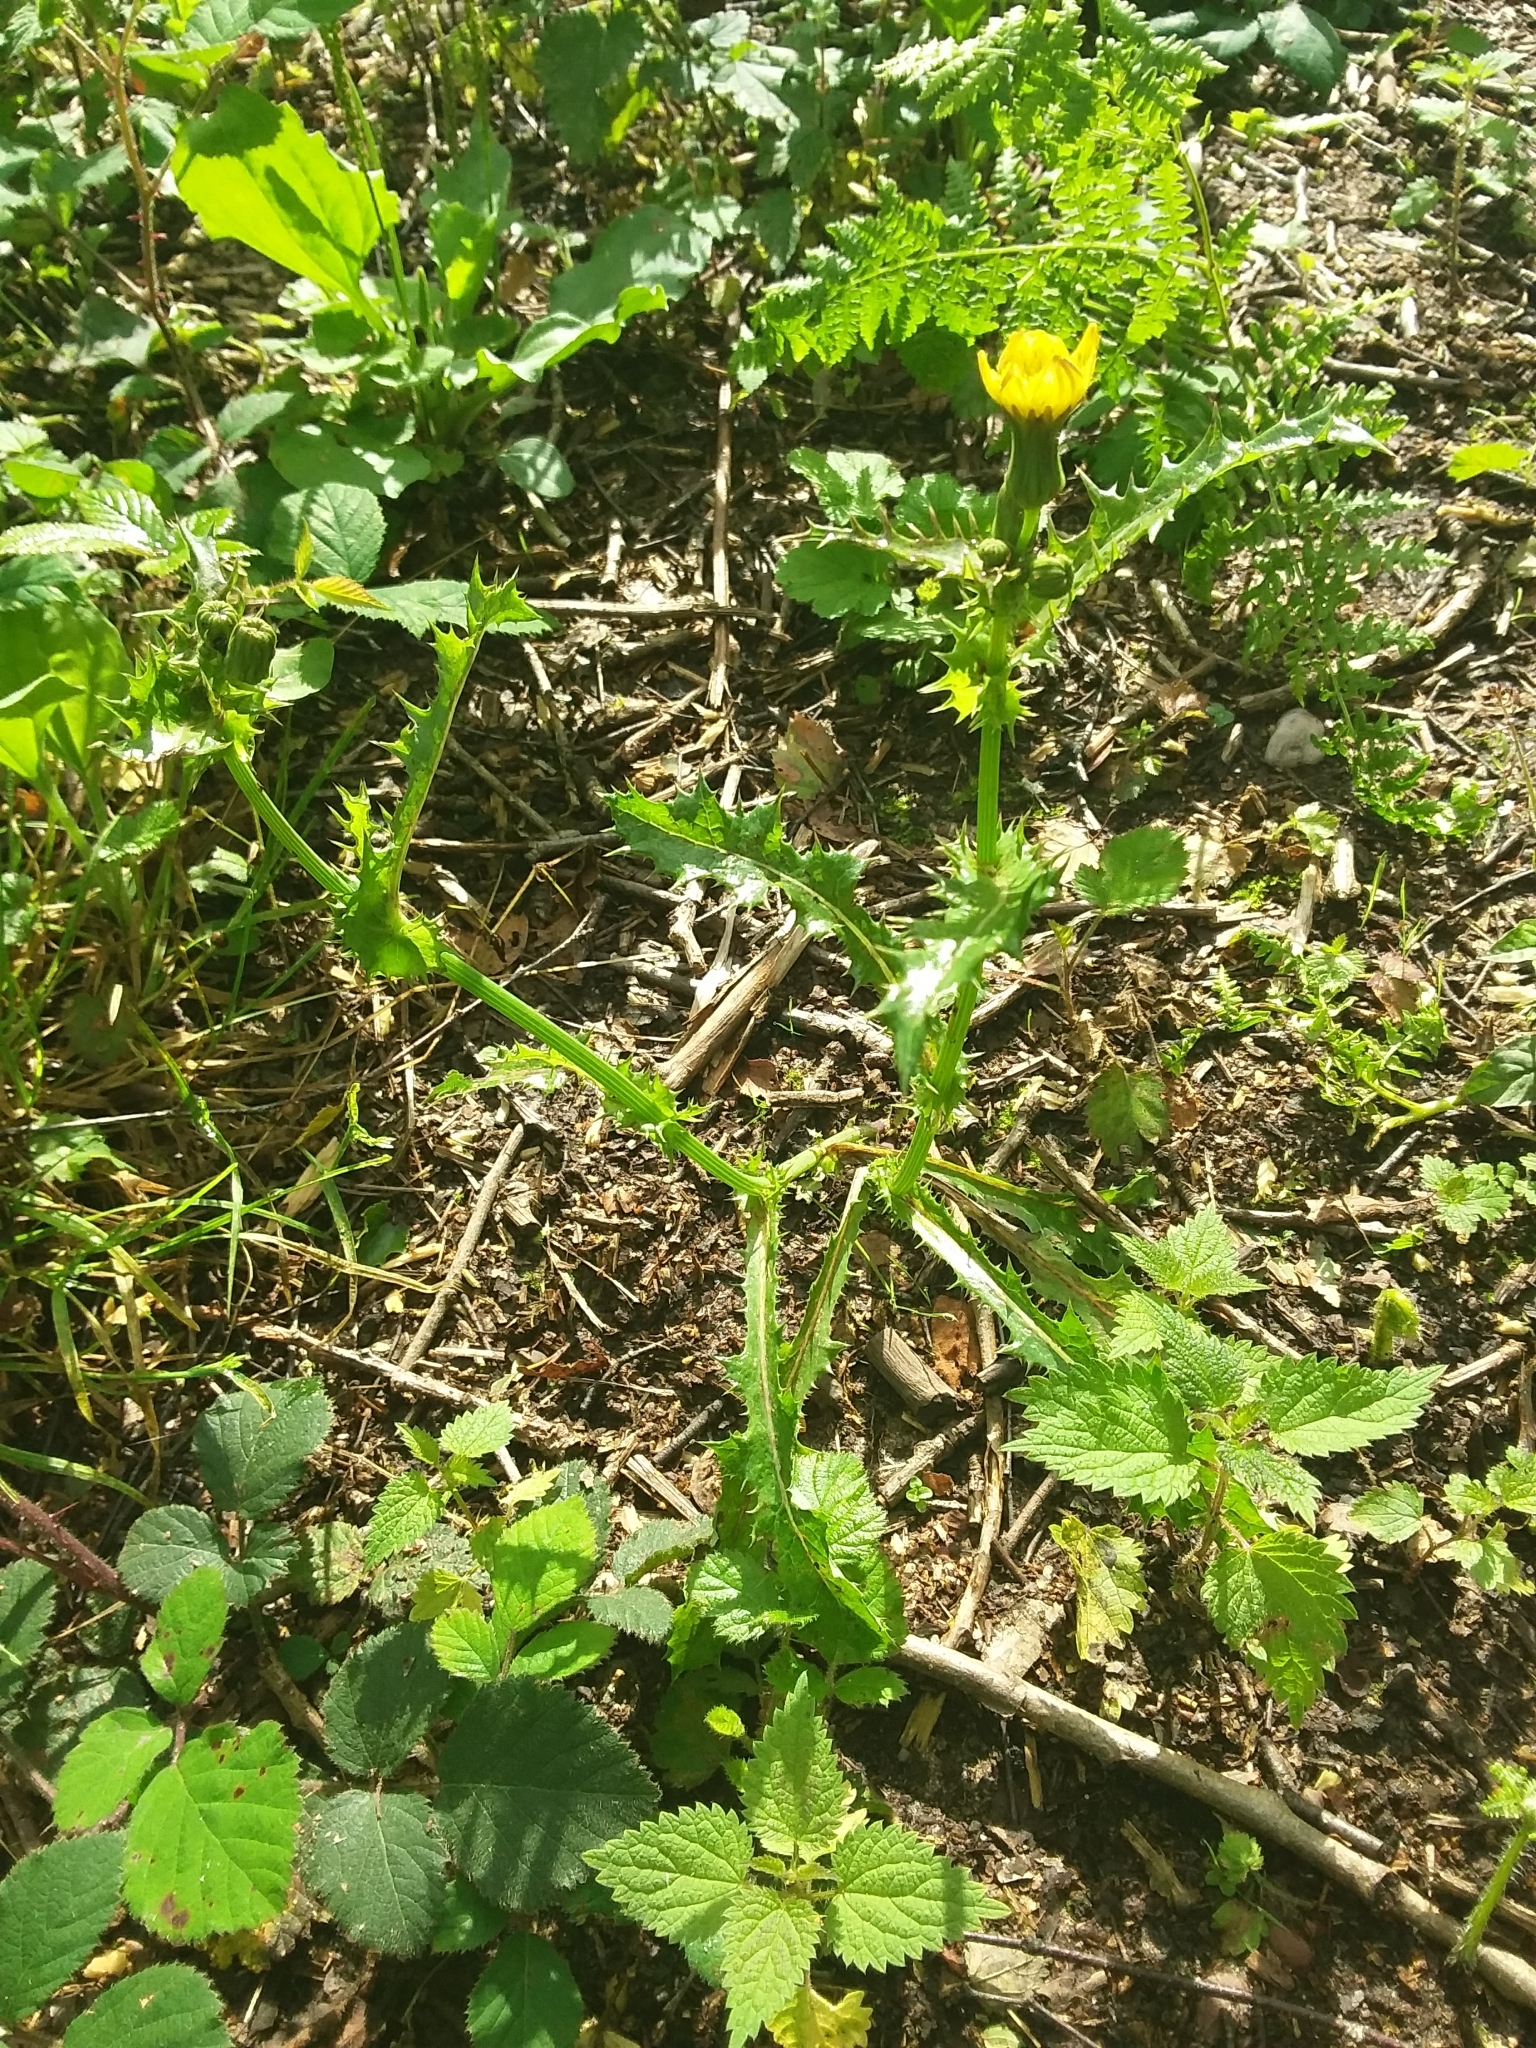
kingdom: Plantae
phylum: Tracheophyta
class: Magnoliopsida
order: Asterales
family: Asteraceae
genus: Sonchus
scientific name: Sonchus asper
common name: Prickly sow-thistle
